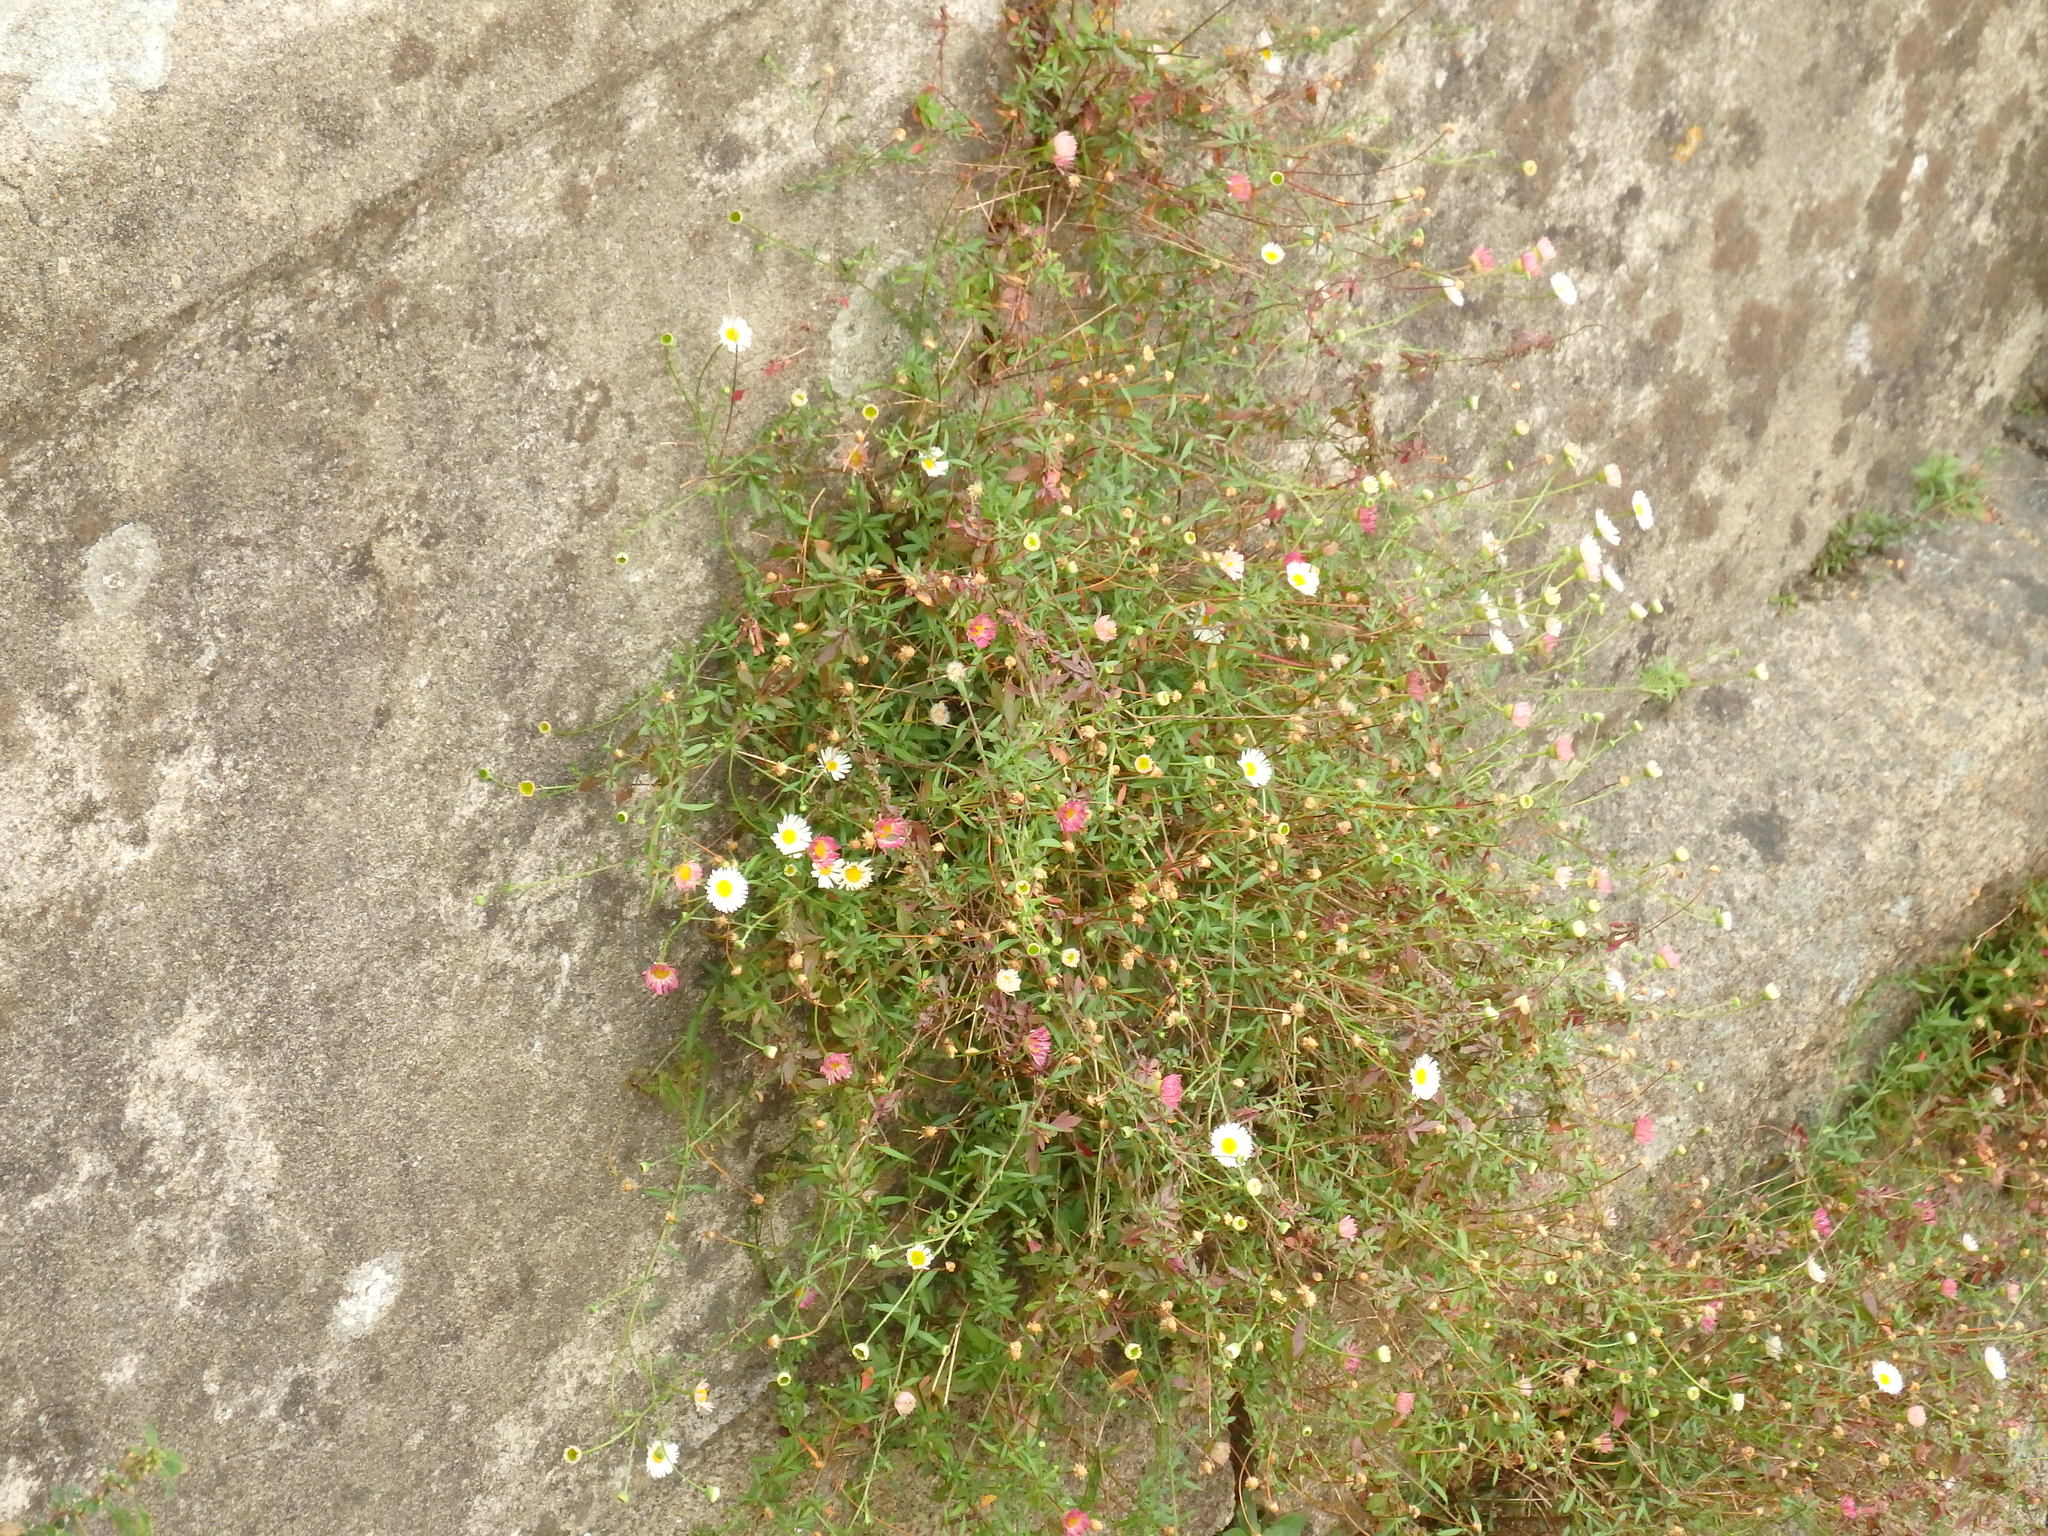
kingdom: Plantae
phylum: Tracheophyta
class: Magnoliopsida
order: Asterales
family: Asteraceae
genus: Erigeron
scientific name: Erigeron karvinskianus
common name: Mexican fleabane
